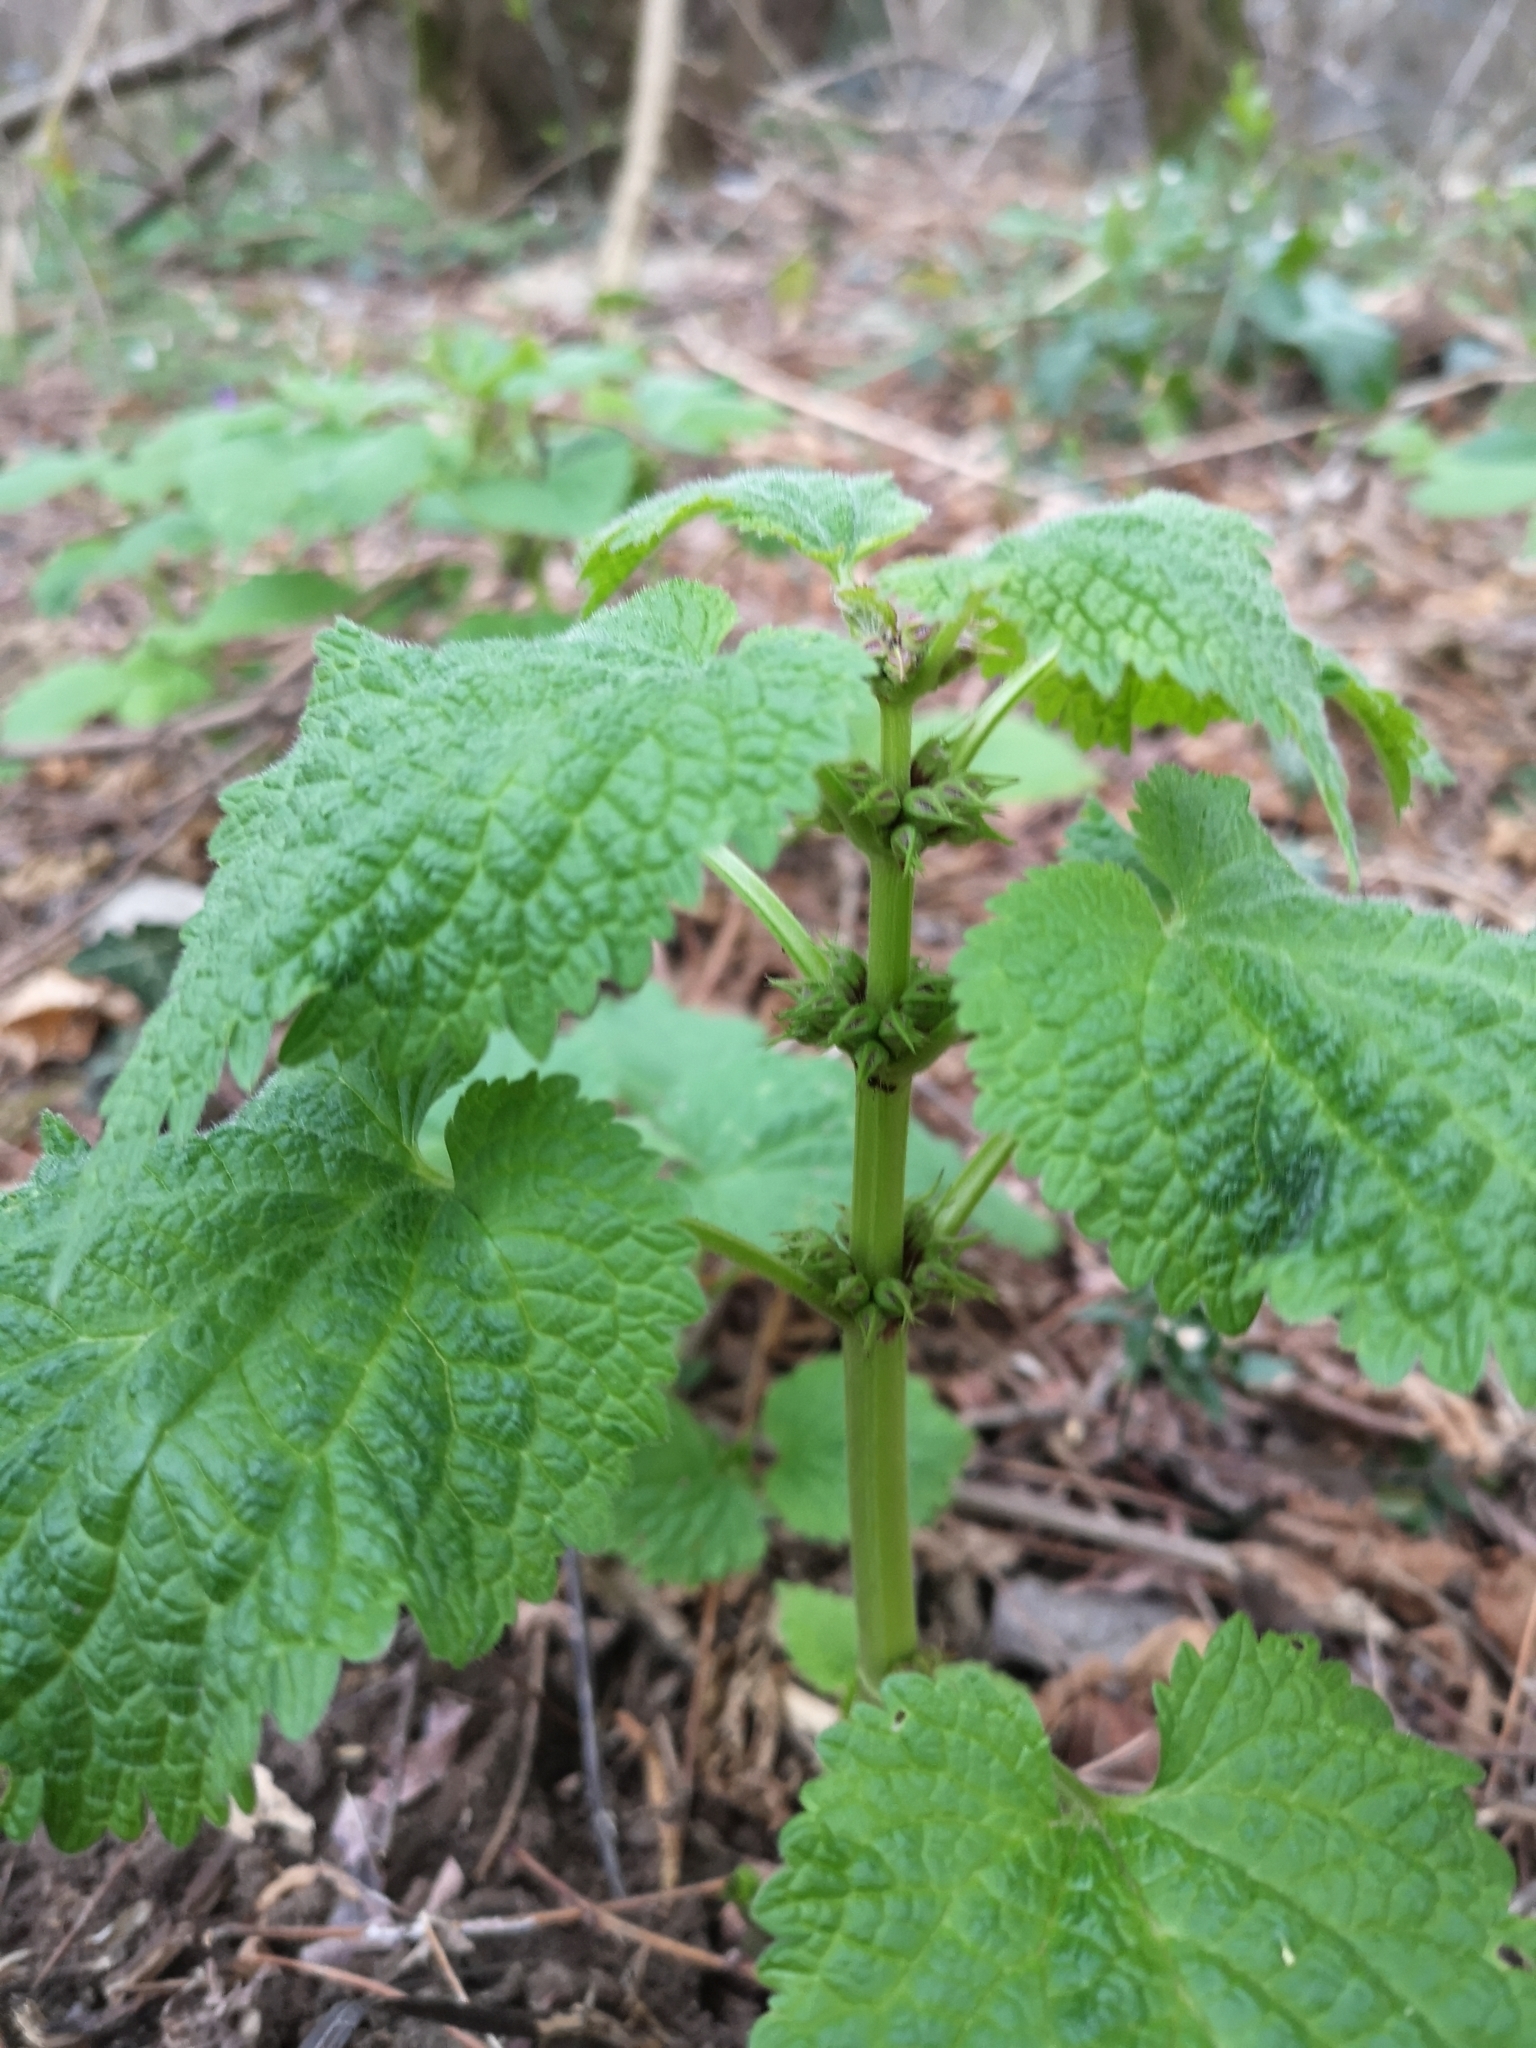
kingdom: Plantae
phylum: Tracheophyta
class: Magnoliopsida
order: Lamiales
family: Lamiaceae
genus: Lamium
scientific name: Lamium orvala
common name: Balm-leaved archangel
